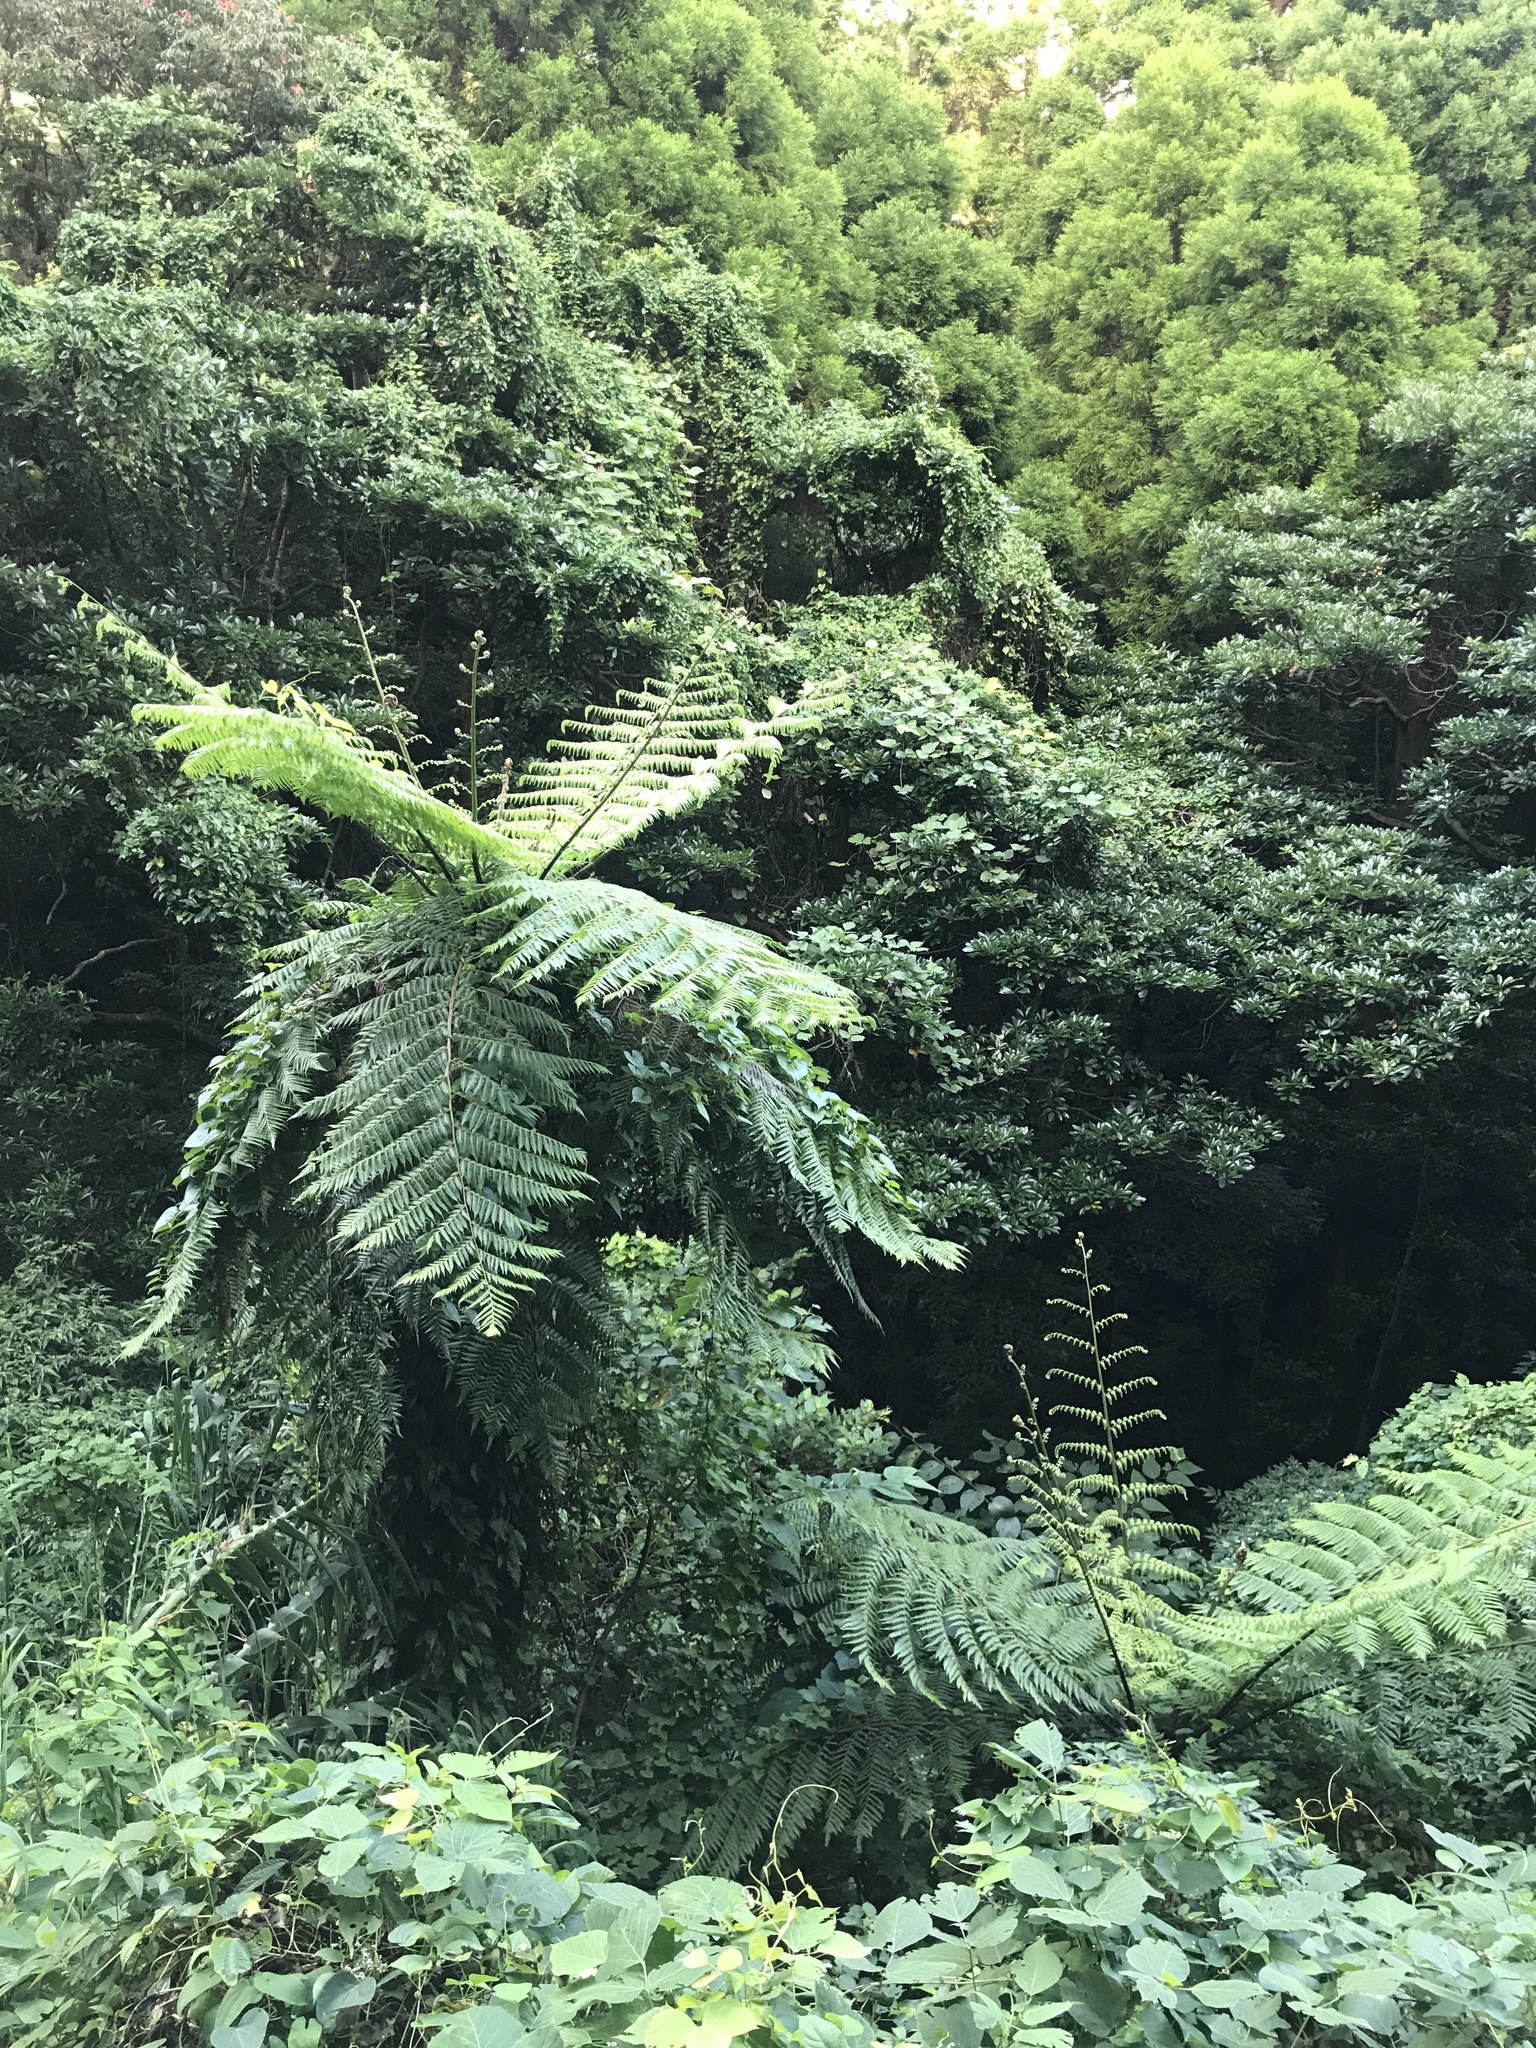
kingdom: Plantae
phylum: Tracheophyta
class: Polypodiopsida
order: Cyatheales
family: Cyatheaceae
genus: Alsophila
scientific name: Alsophila spinulosa
